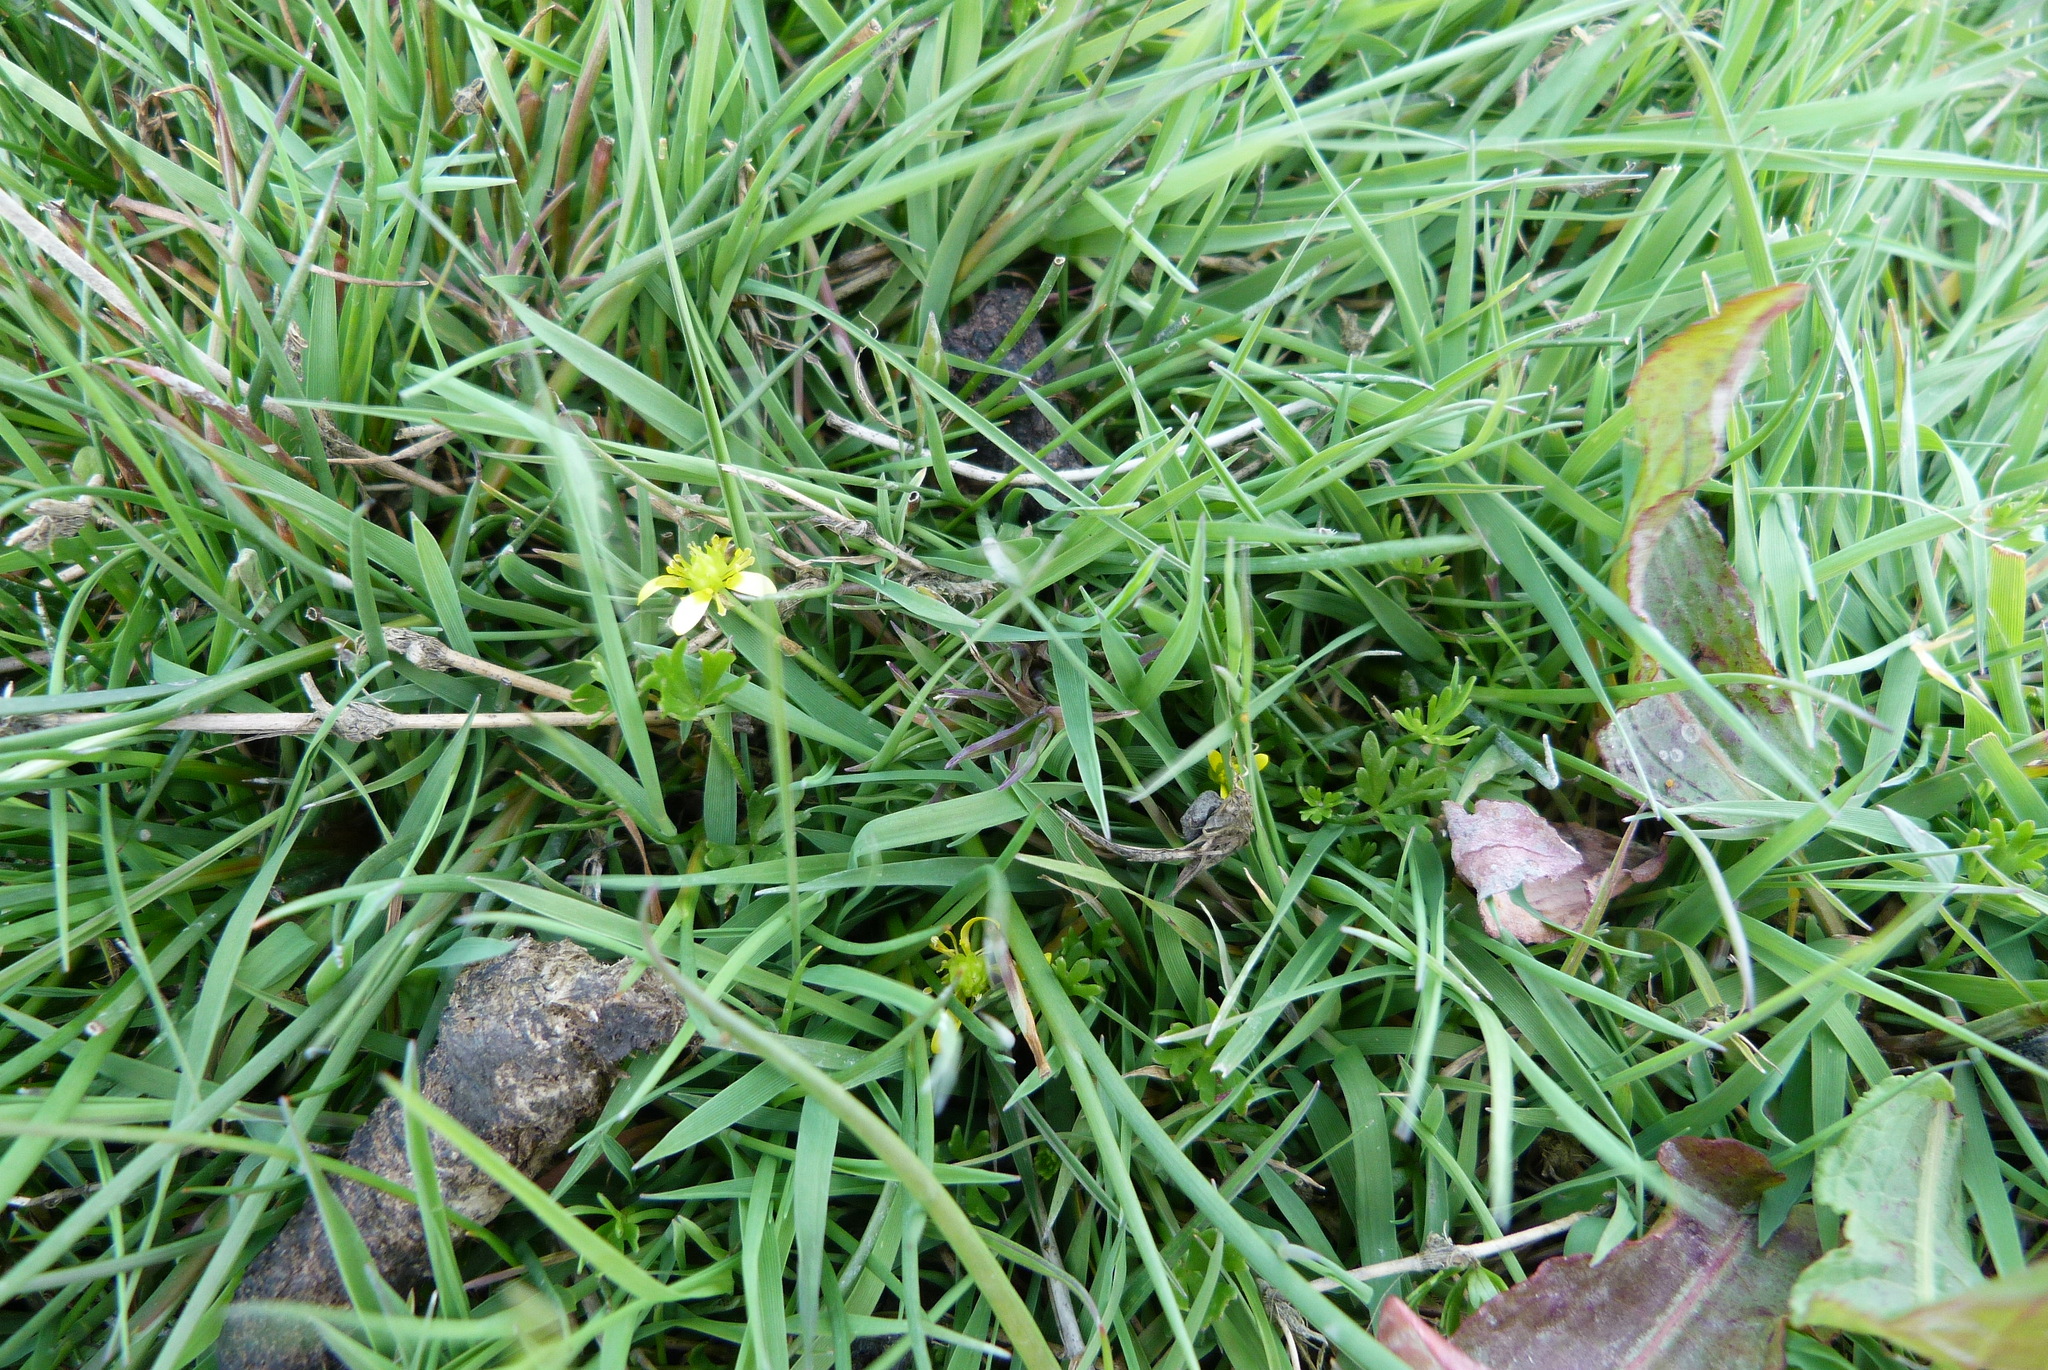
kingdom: Plantae
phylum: Tracheophyta
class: Magnoliopsida
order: Ranunculales
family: Ranunculaceae
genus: Ranunculus
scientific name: Ranunculus glabrifolius
